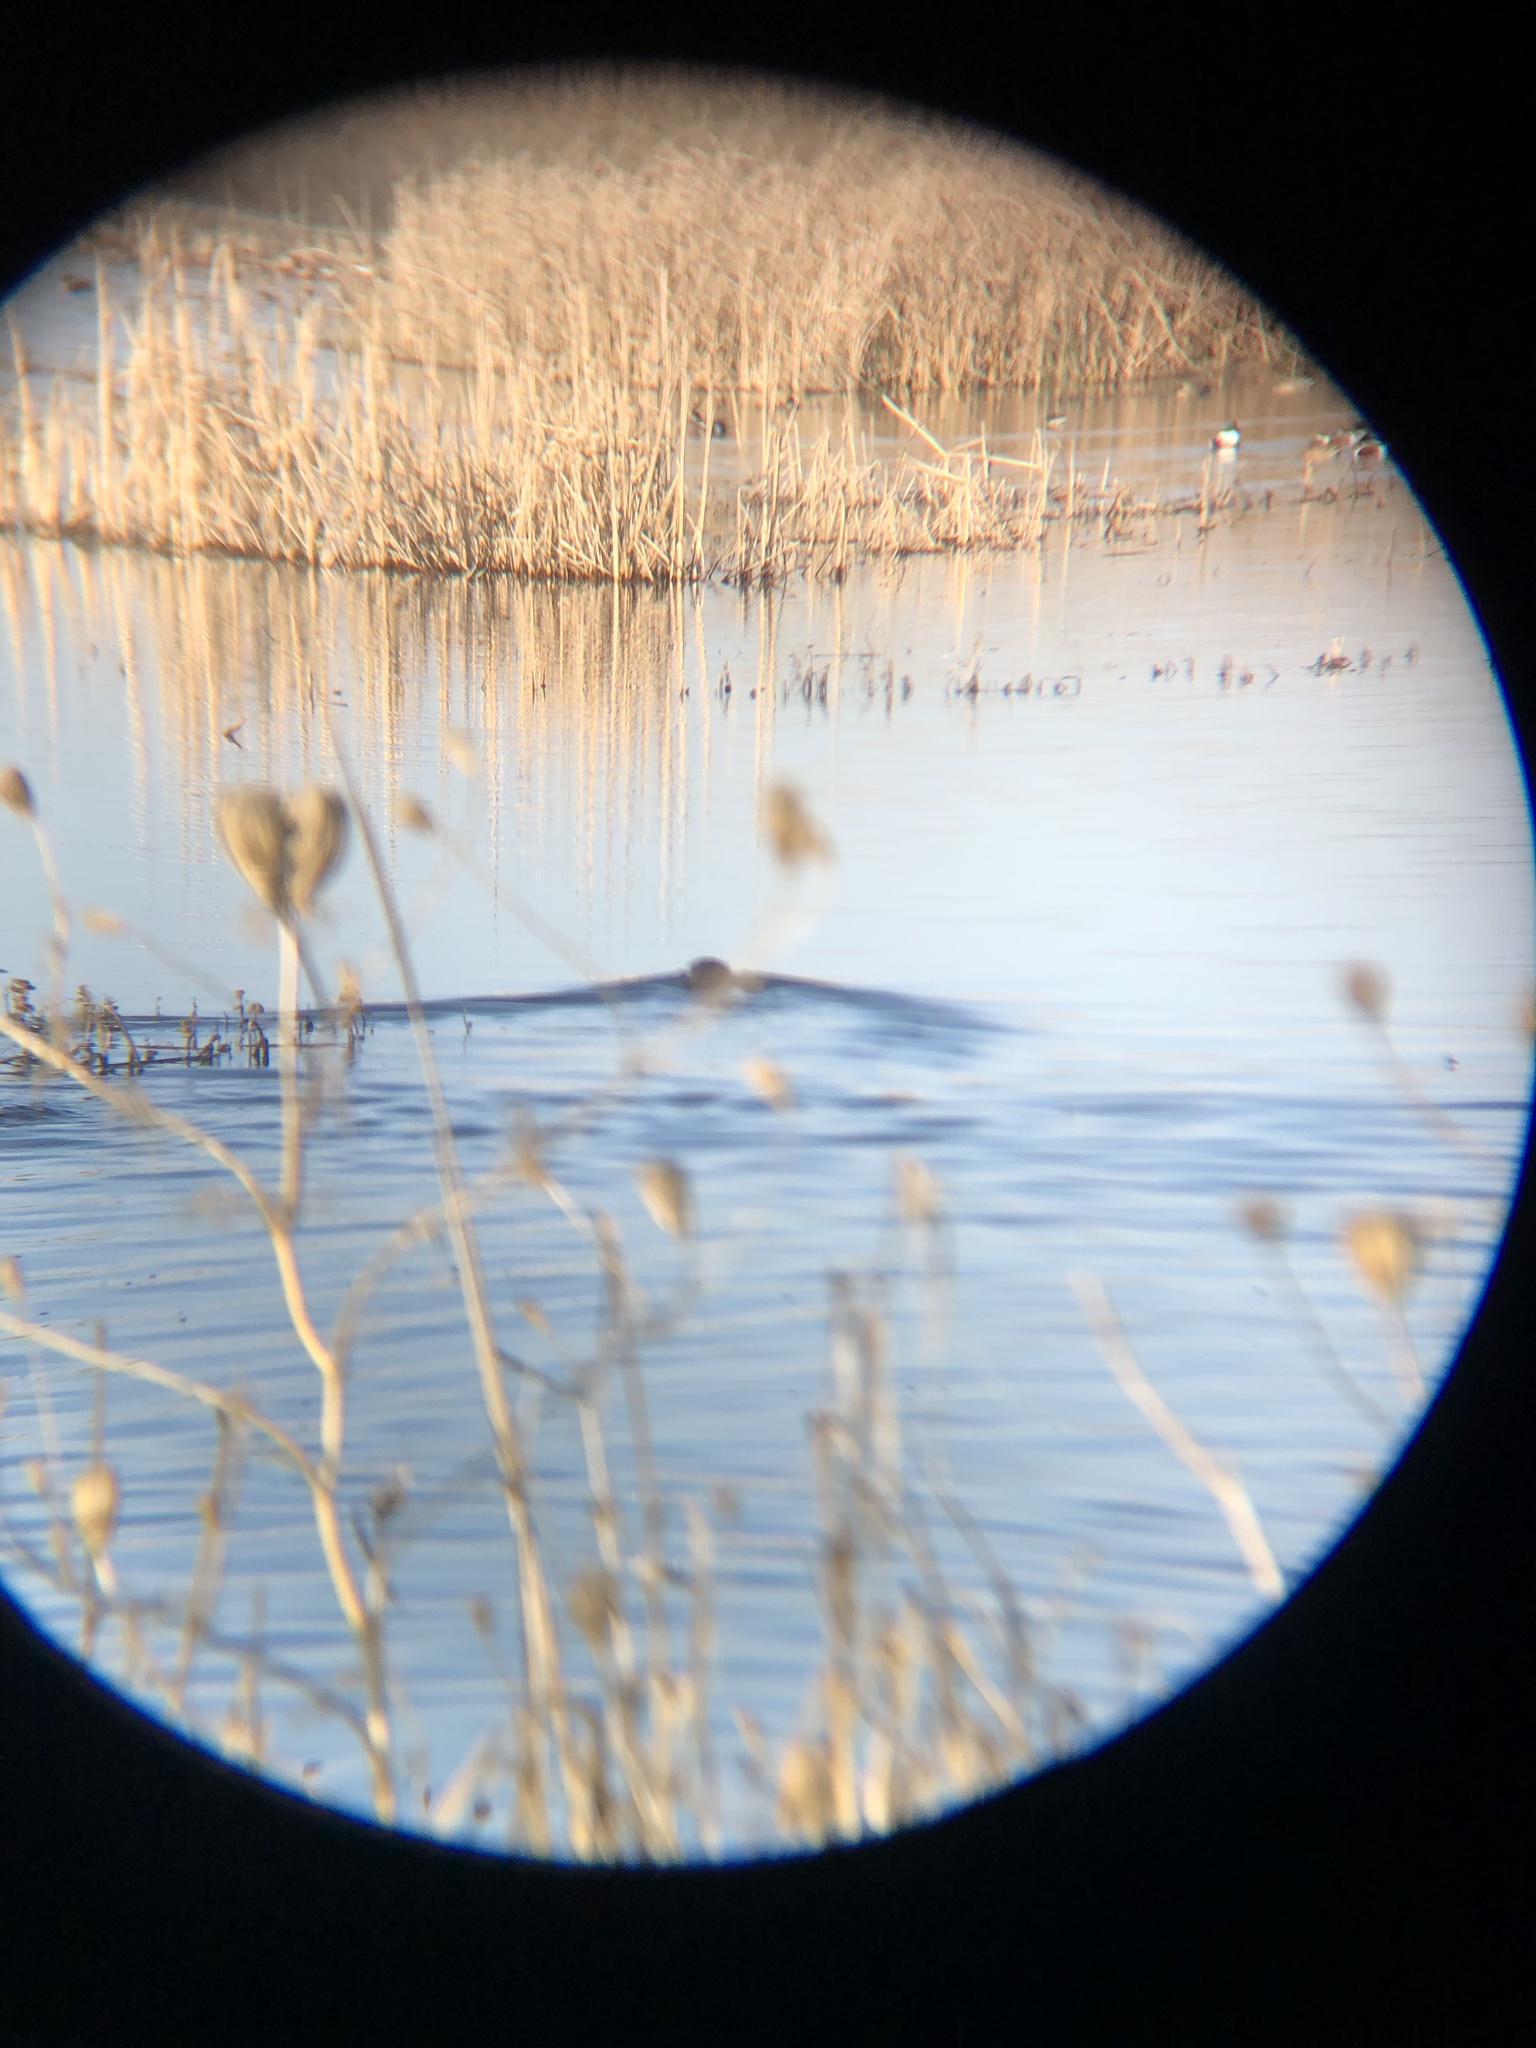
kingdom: Animalia
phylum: Chordata
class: Mammalia
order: Carnivora
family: Mustelidae
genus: Lontra
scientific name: Lontra canadensis
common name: North american river otter
